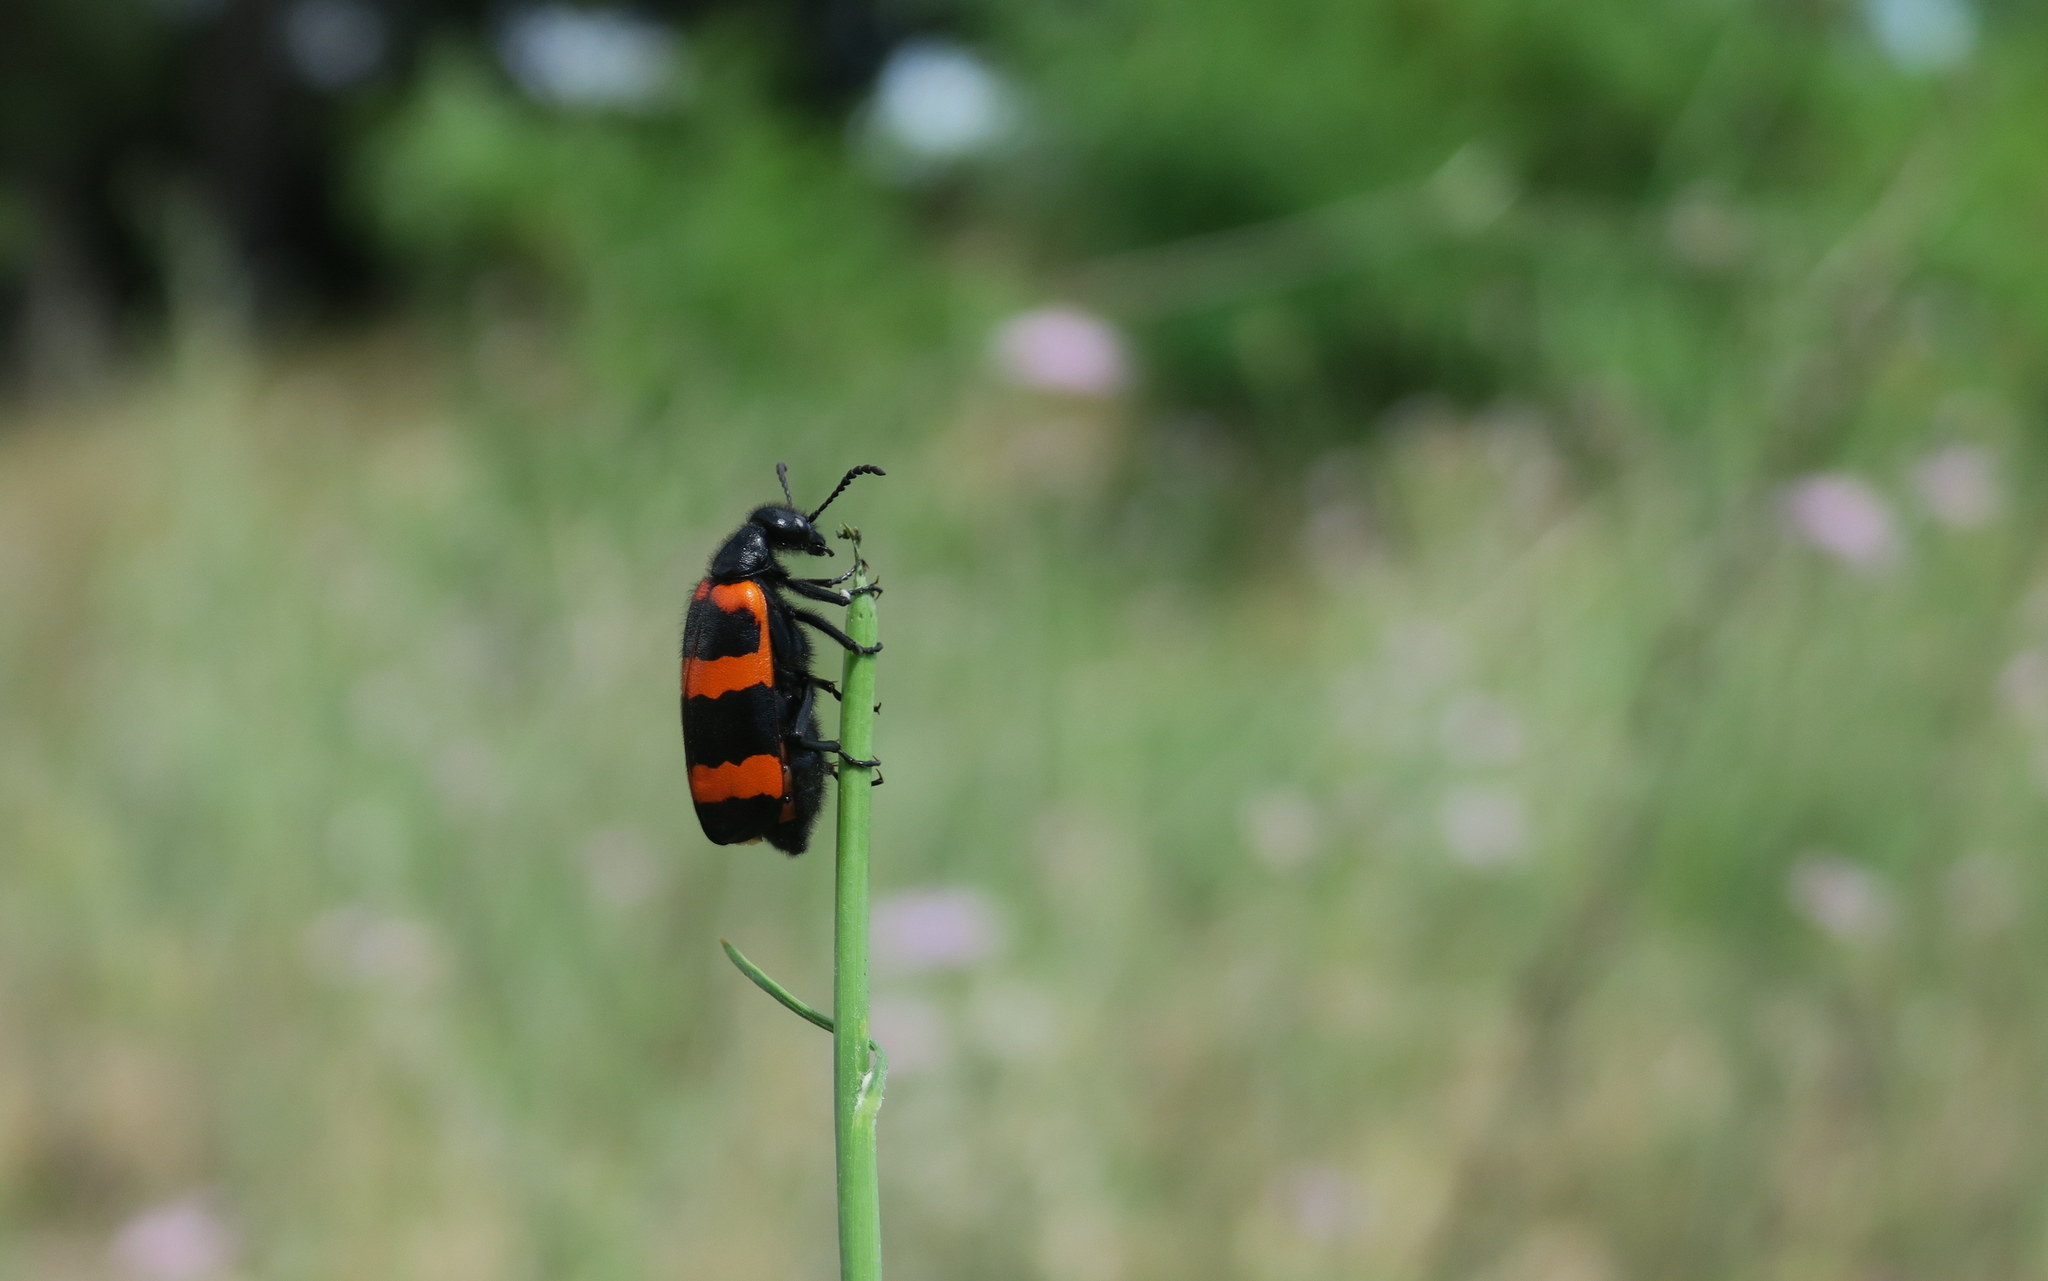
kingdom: Animalia
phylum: Arthropoda
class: Insecta
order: Coleoptera
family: Meloidae
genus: Mylabris
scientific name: Mylabris cincta
